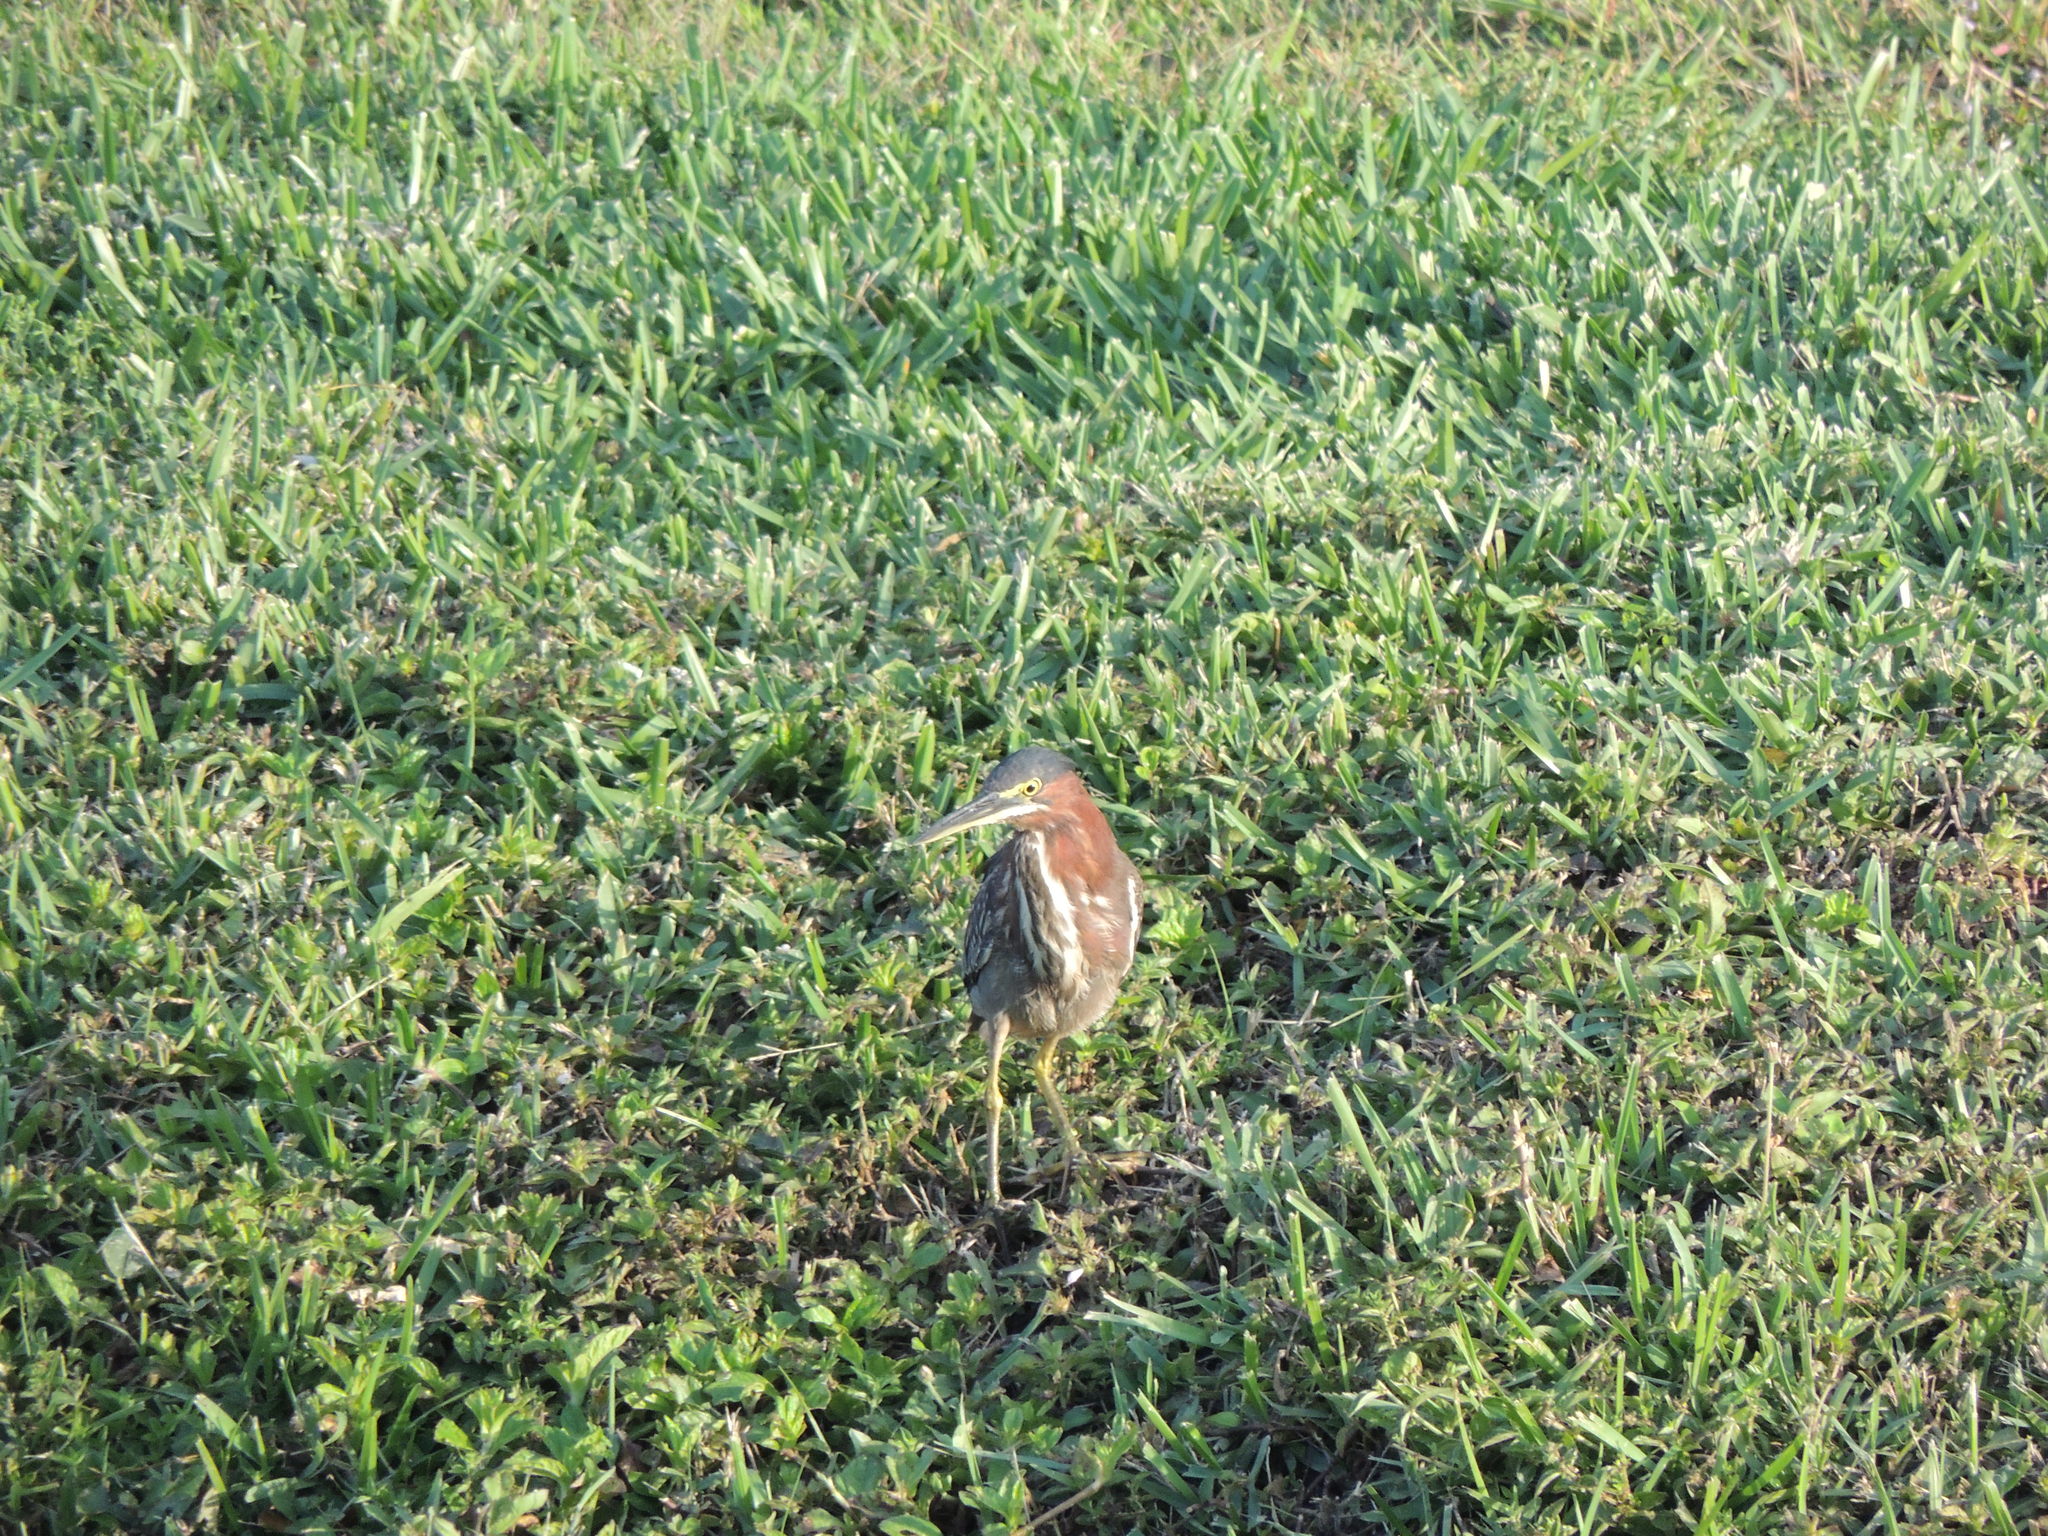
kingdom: Animalia
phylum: Chordata
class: Aves
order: Pelecaniformes
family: Ardeidae
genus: Butorides
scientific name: Butorides virescens
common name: Green heron
